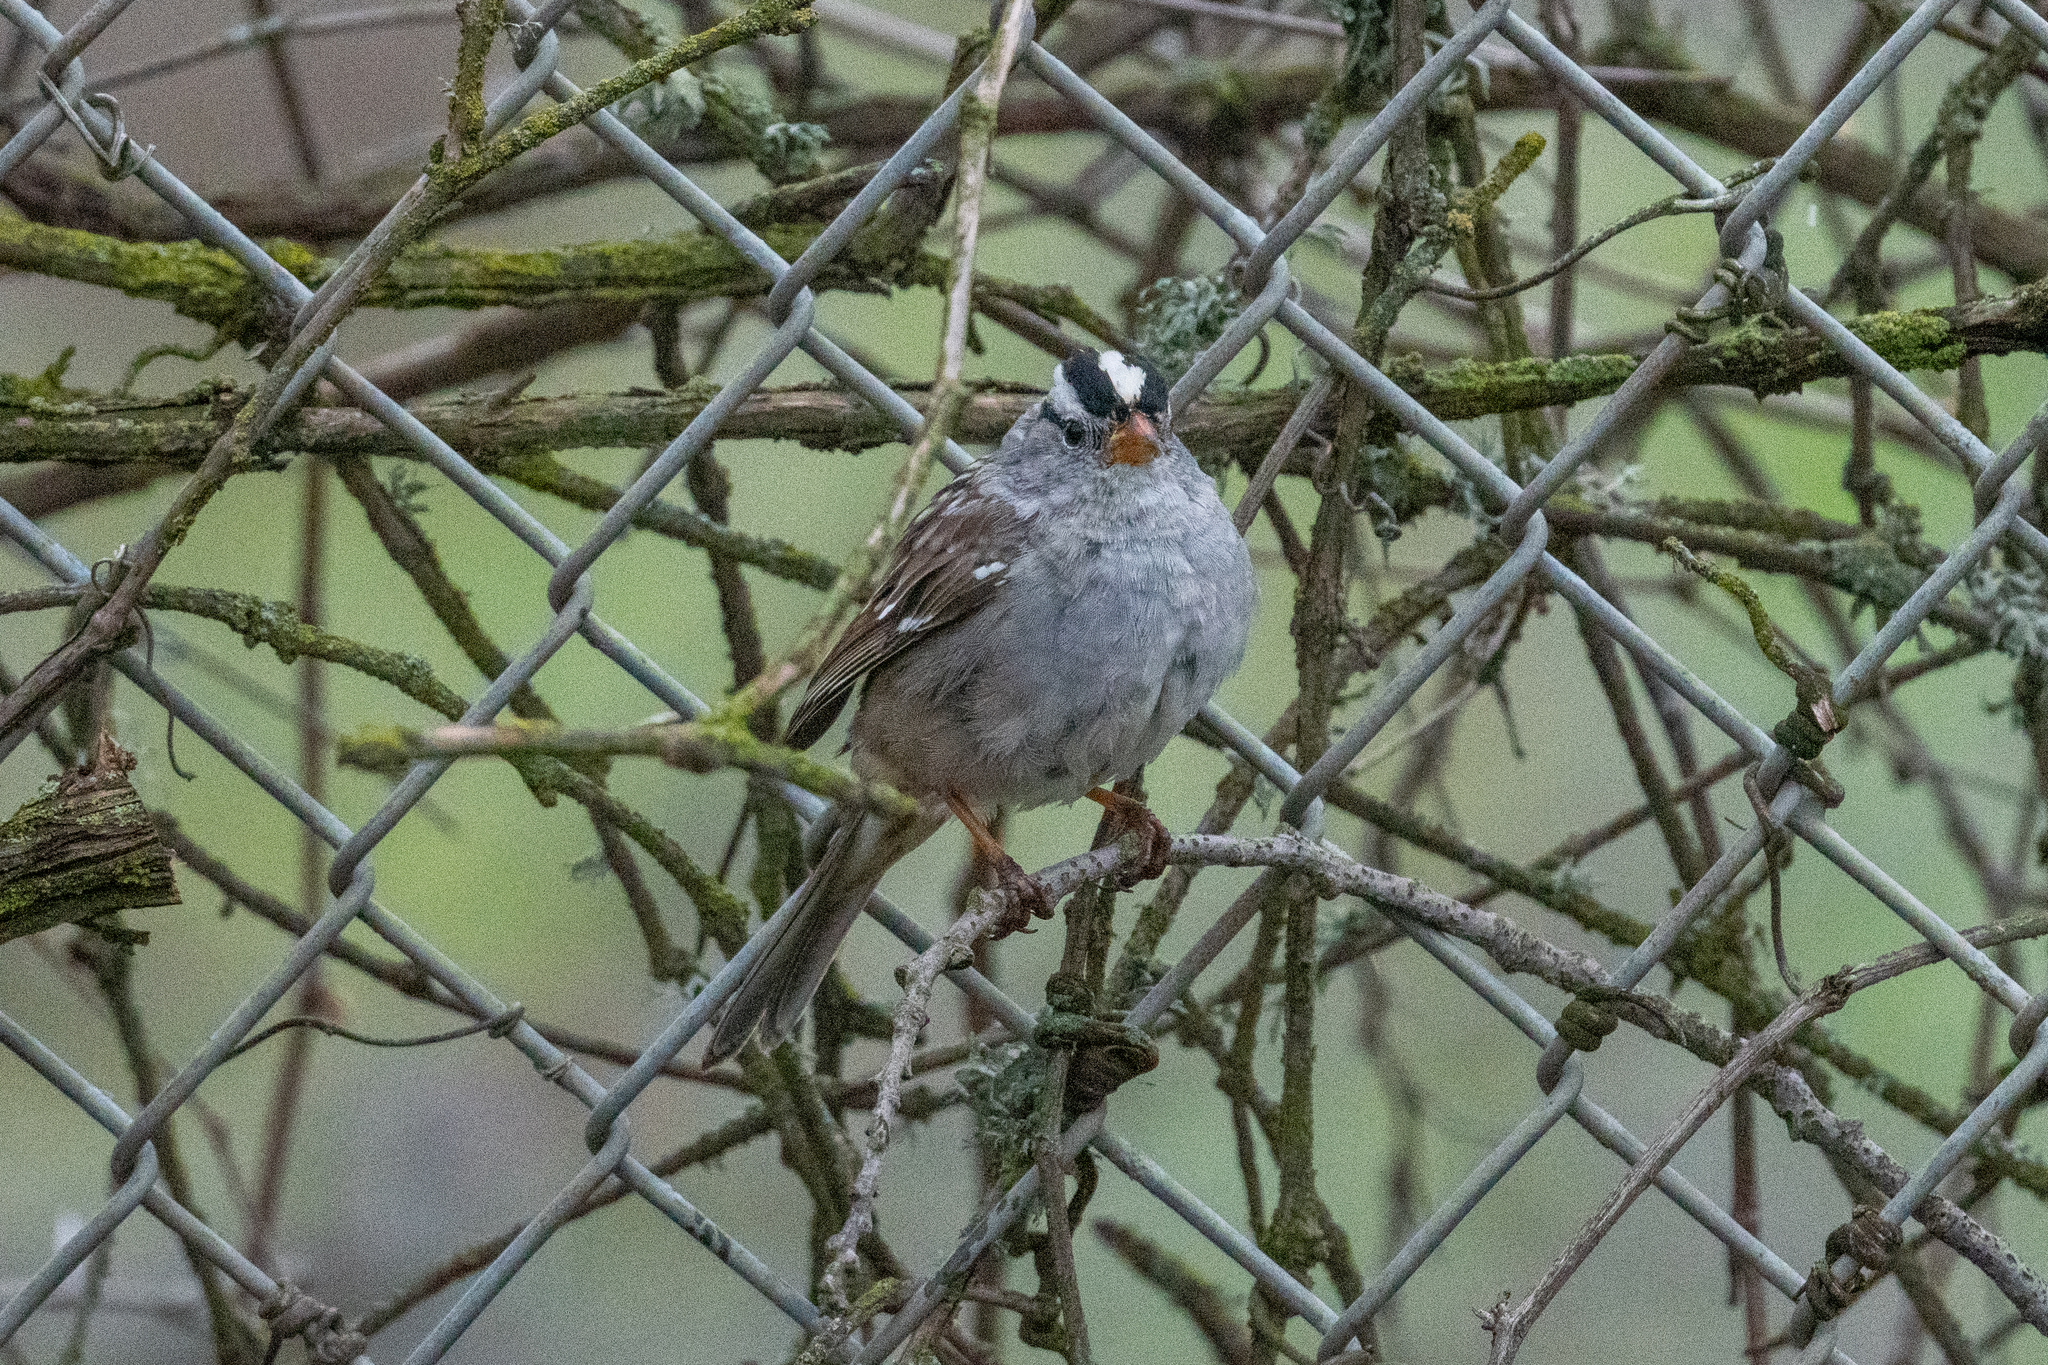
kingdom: Animalia
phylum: Chordata
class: Aves
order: Passeriformes
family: Passerellidae
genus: Zonotrichia
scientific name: Zonotrichia leucophrys
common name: White-crowned sparrow
